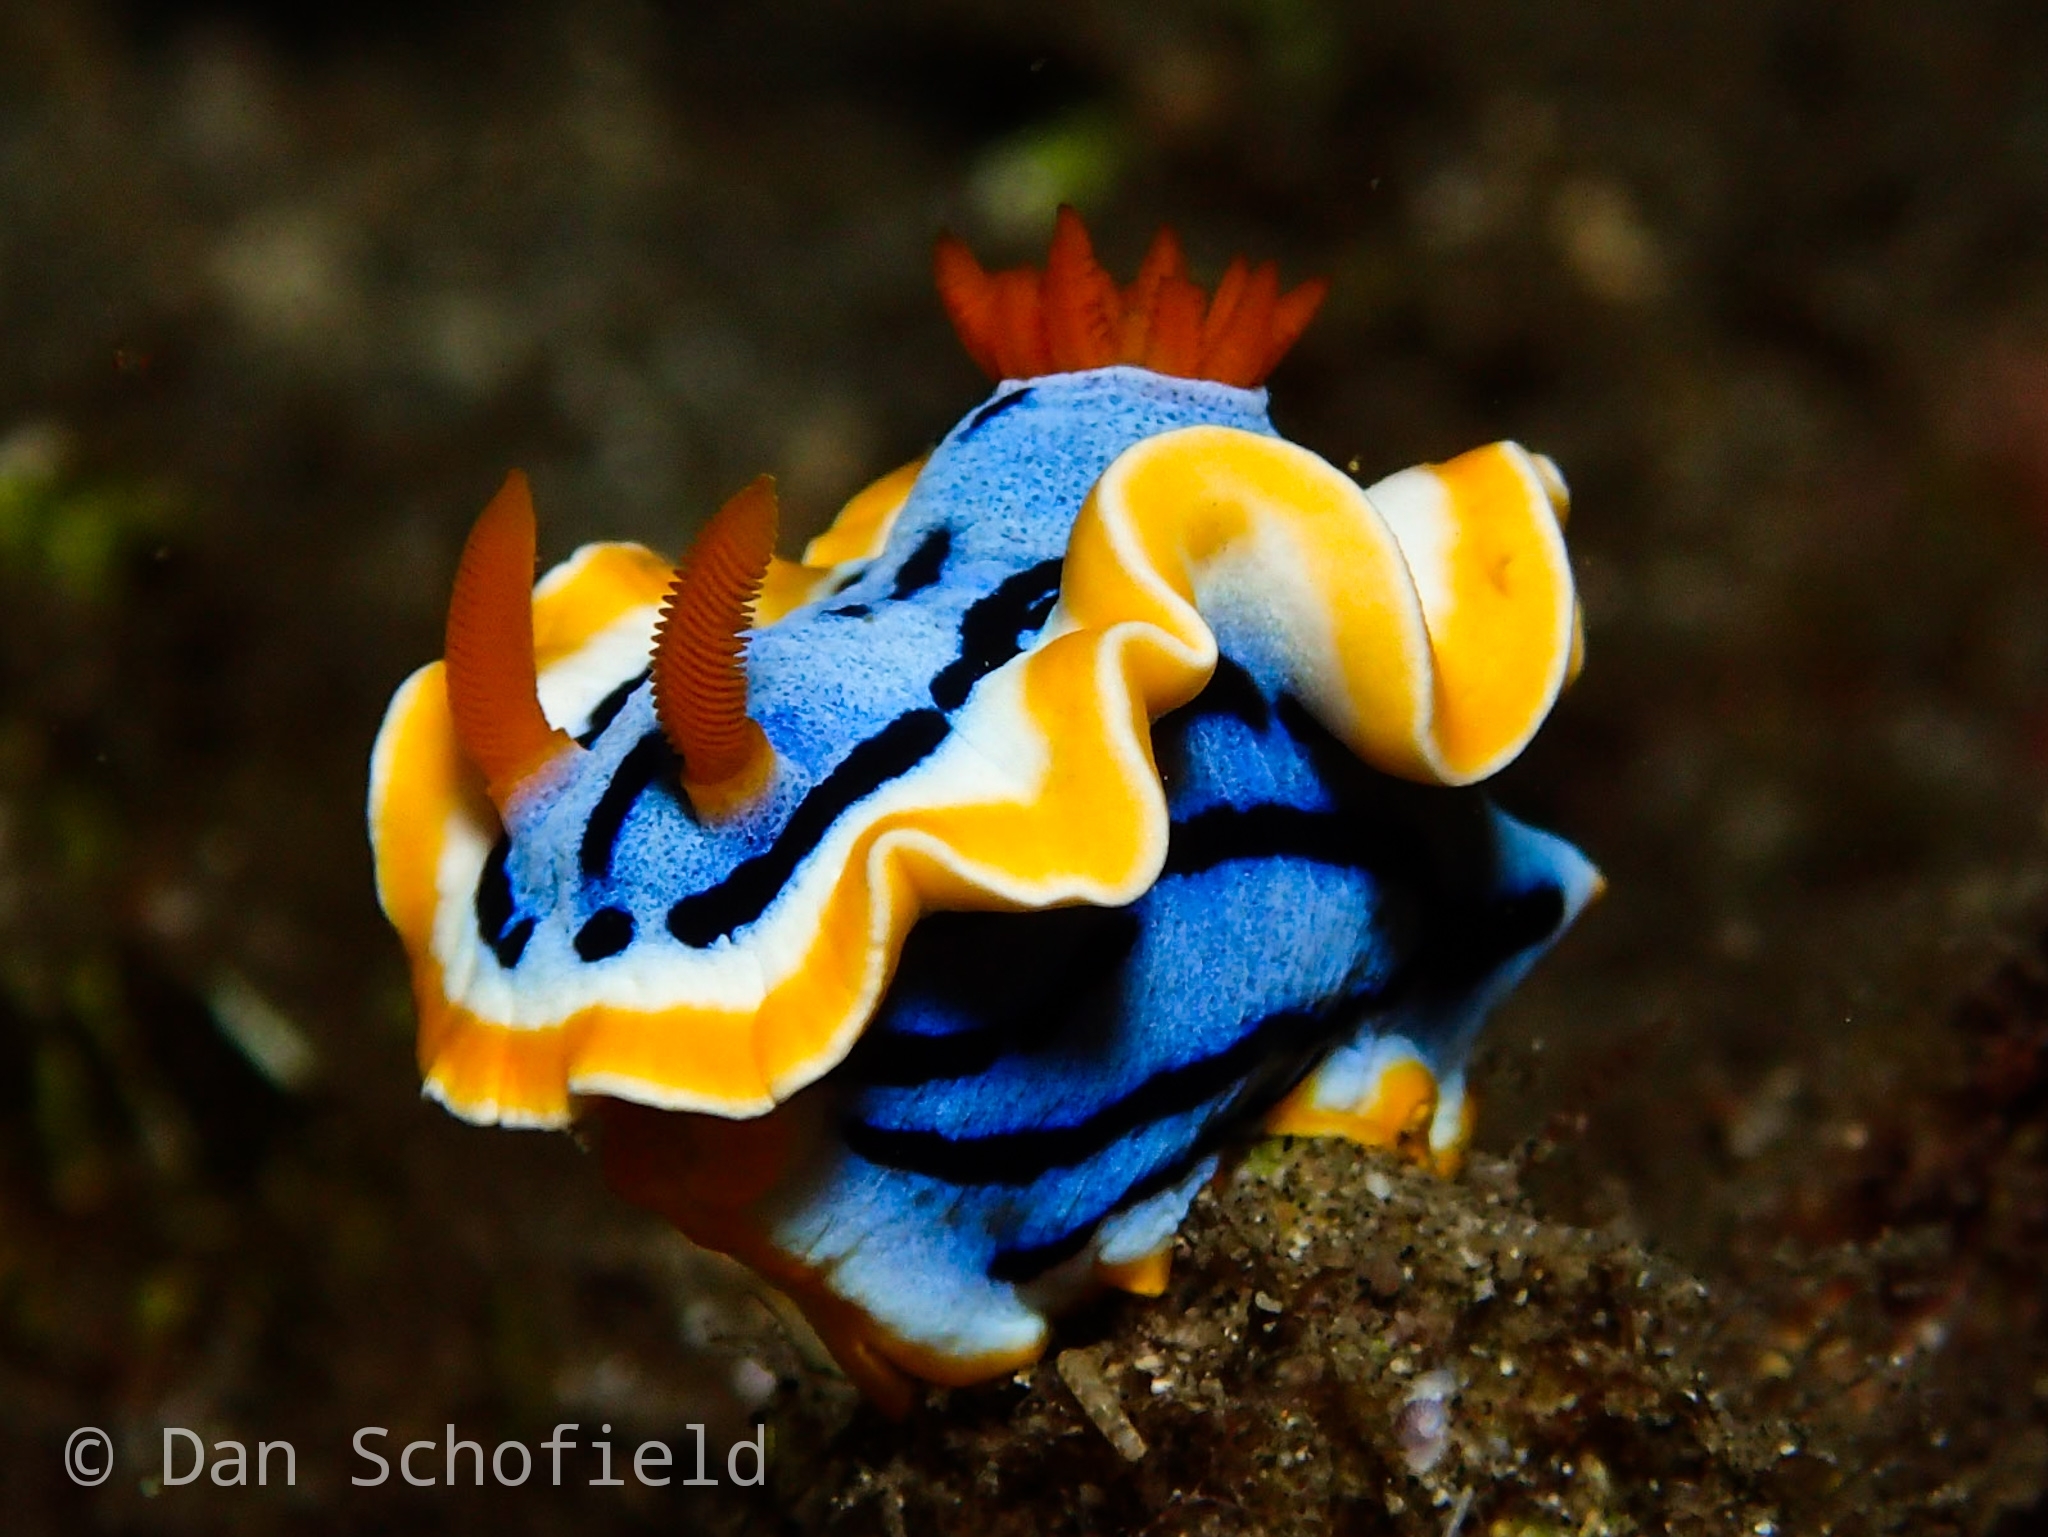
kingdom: Animalia
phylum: Mollusca
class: Gastropoda
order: Nudibranchia
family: Chromodorididae
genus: Chromodoris
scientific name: Chromodoris annae
